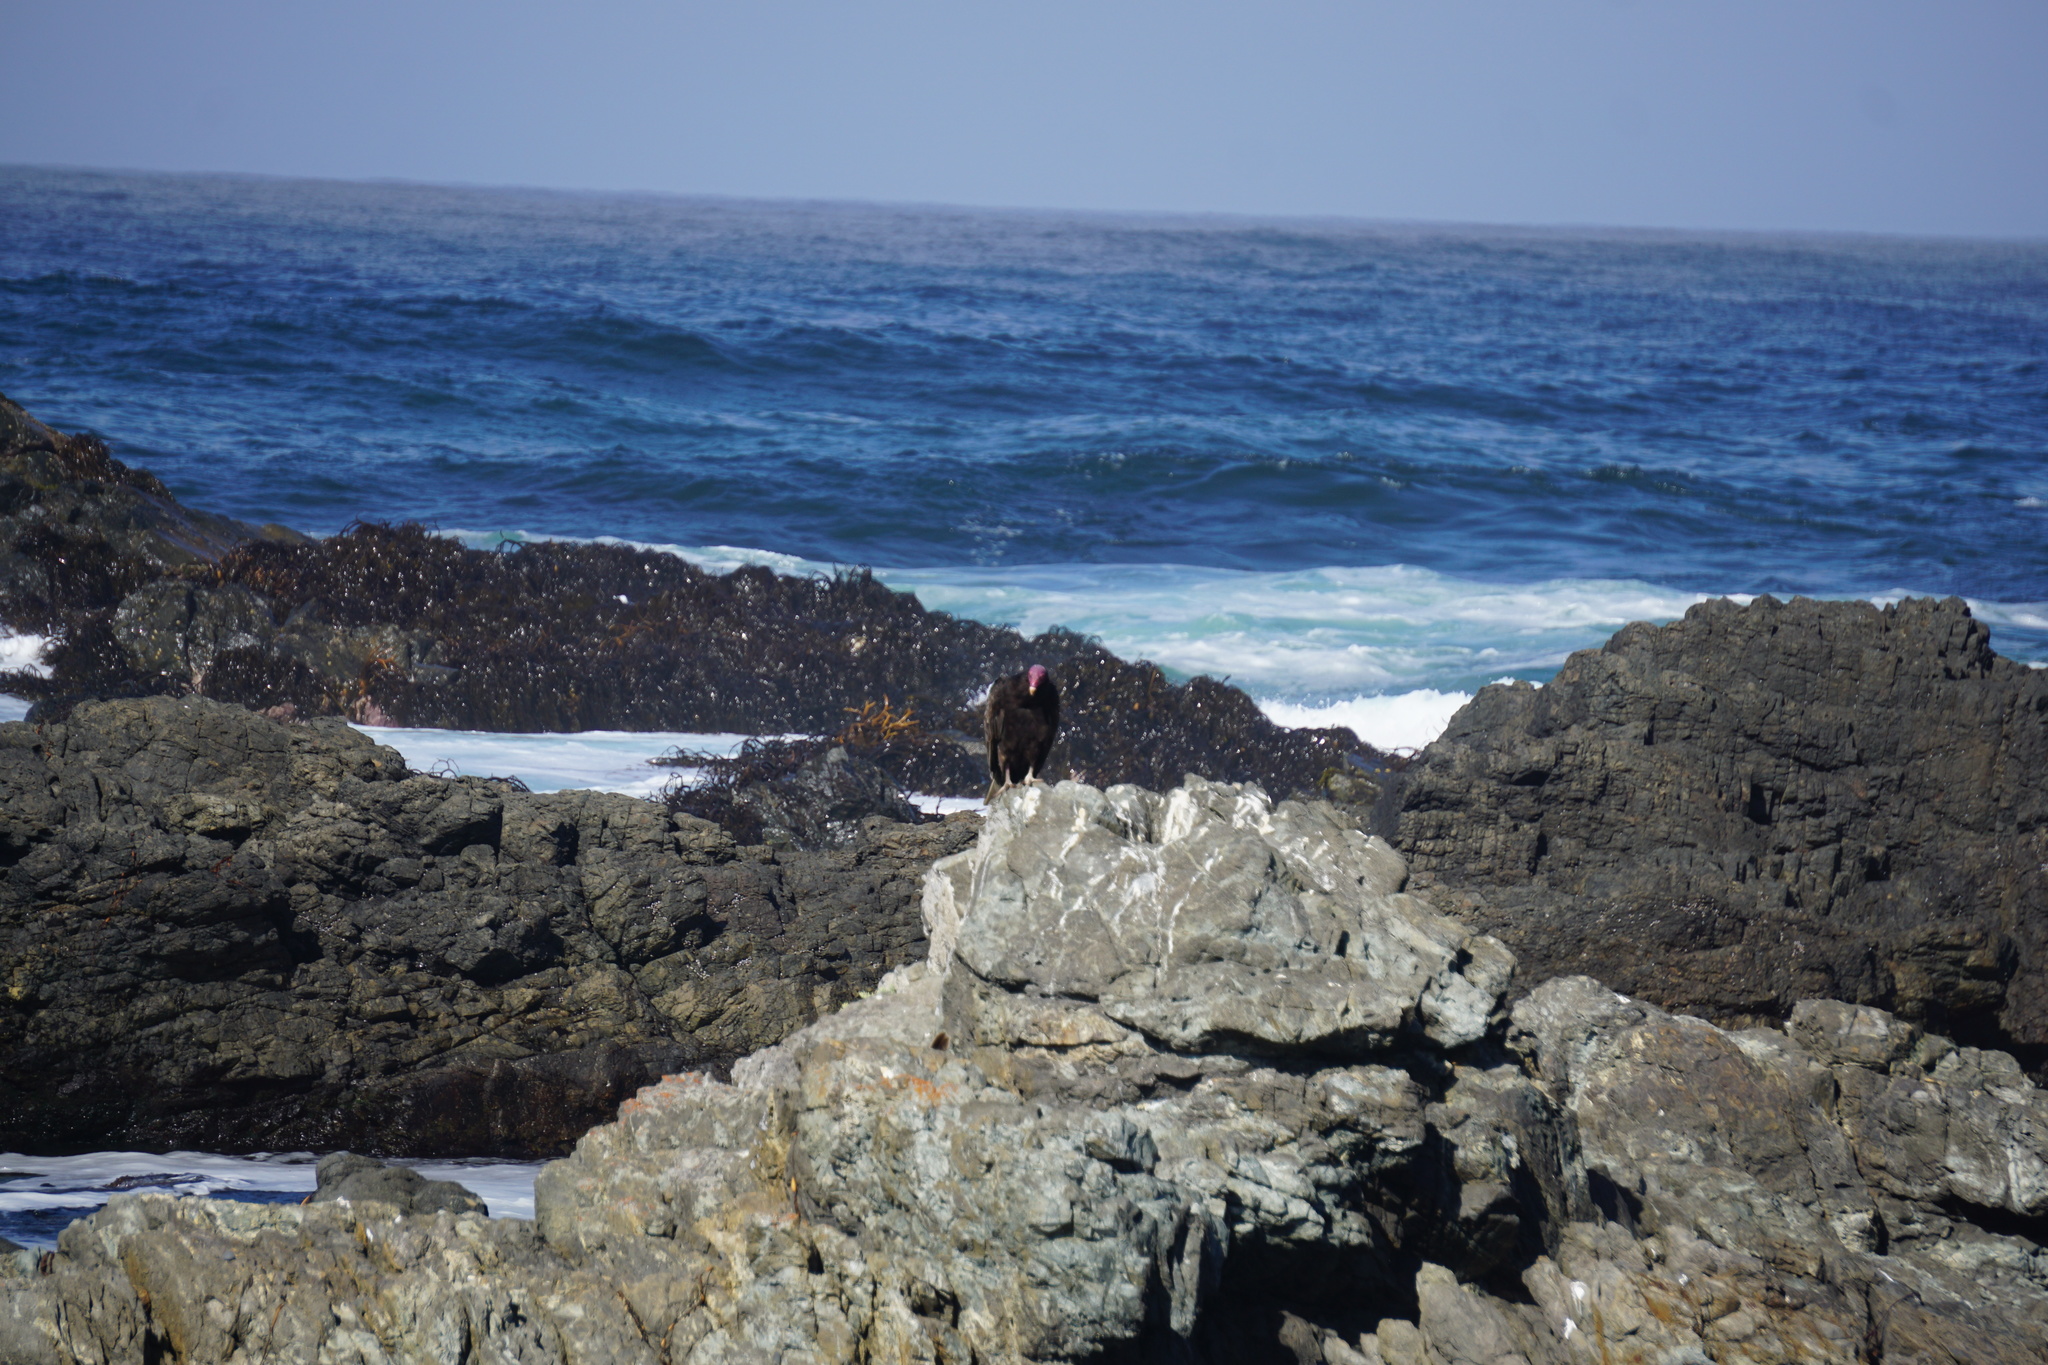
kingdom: Animalia
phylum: Chordata
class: Aves
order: Accipitriformes
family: Cathartidae
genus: Cathartes
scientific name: Cathartes aura
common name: Turkey vulture
